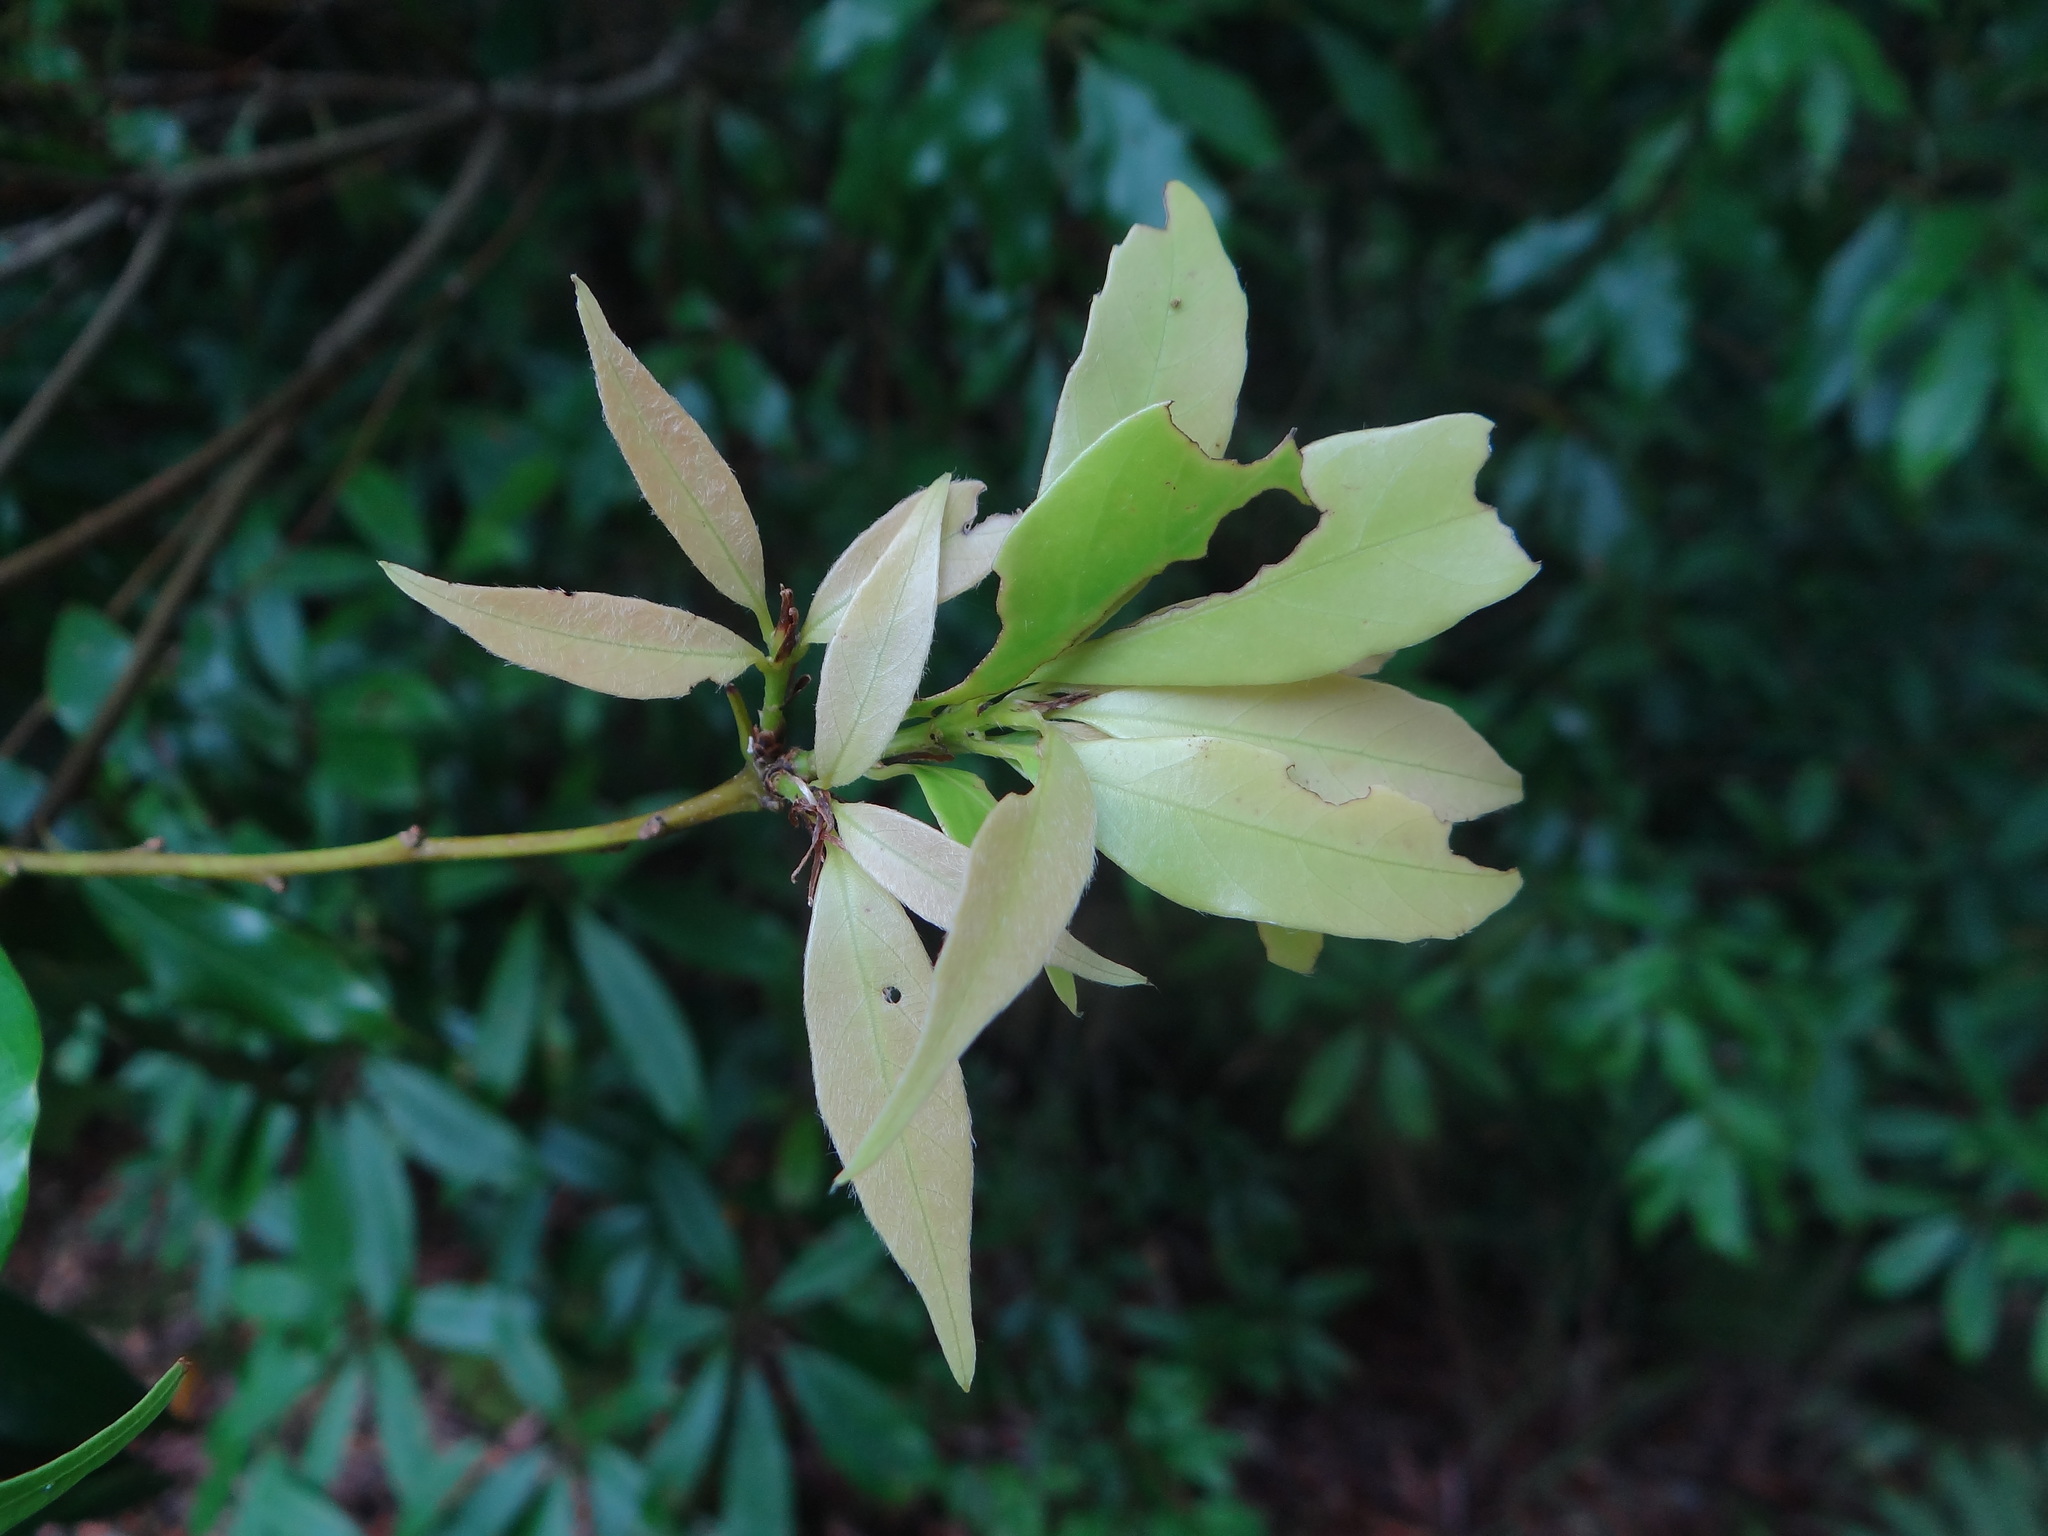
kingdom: Plantae
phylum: Tracheophyta
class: Magnoliopsida
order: Fagales
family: Fagaceae
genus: Quercus
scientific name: Quercus longinux
